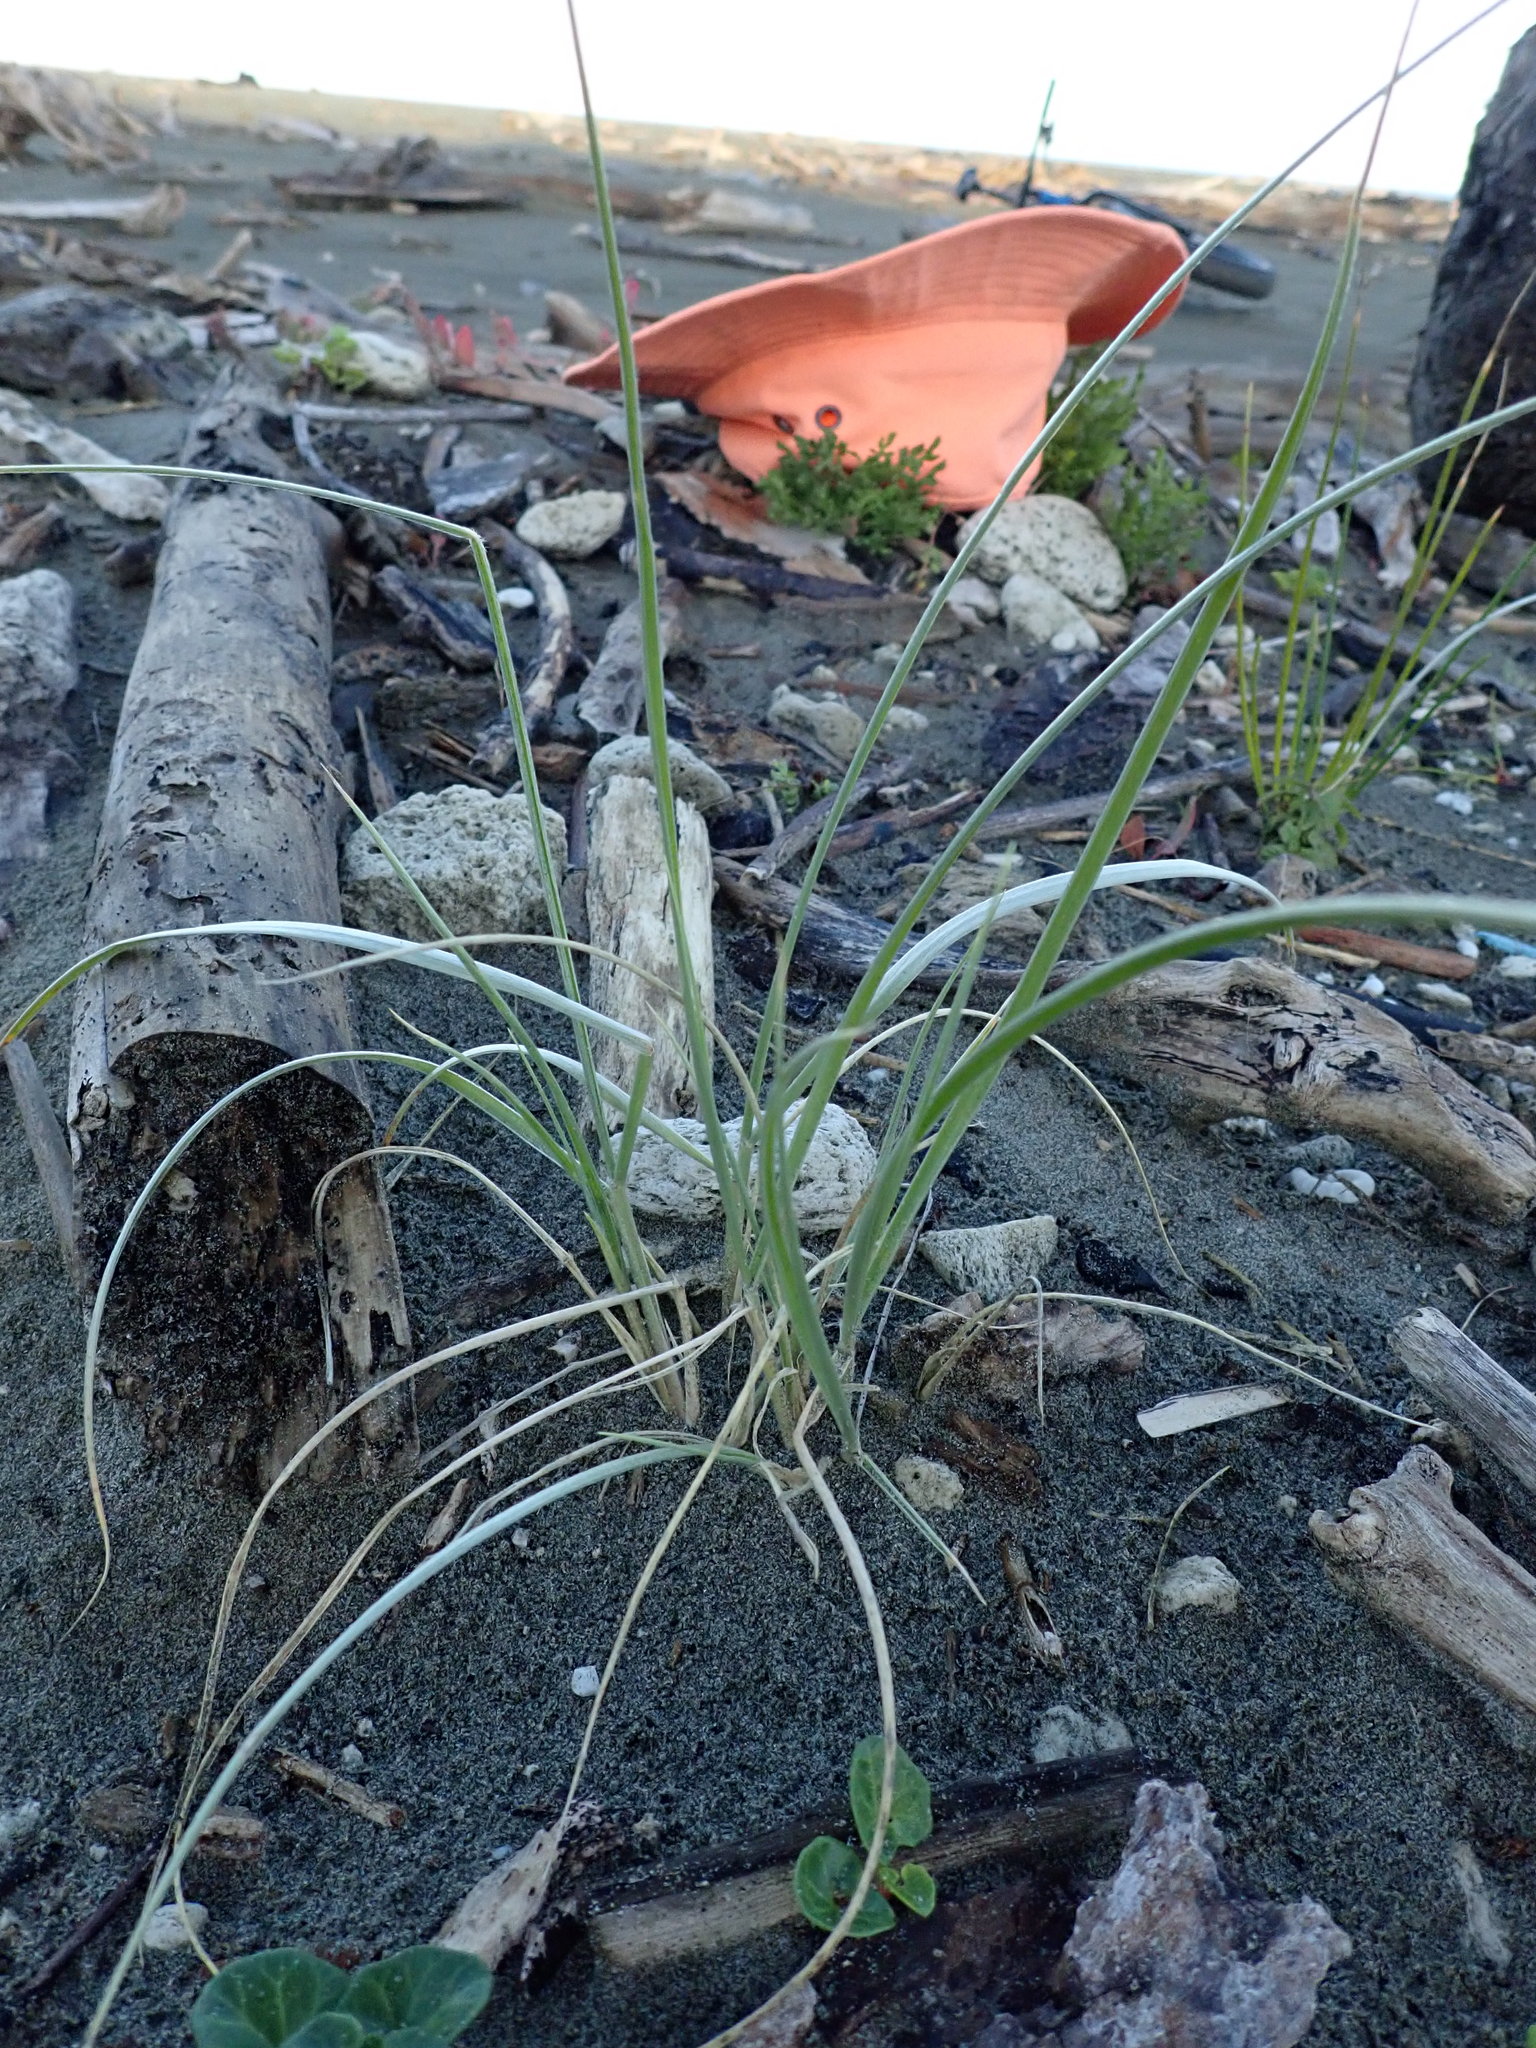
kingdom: Plantae
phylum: Tracheophyta
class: Liliopsida
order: Poales
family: Poaceae
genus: Spinifex
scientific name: Spinifex sericeus
